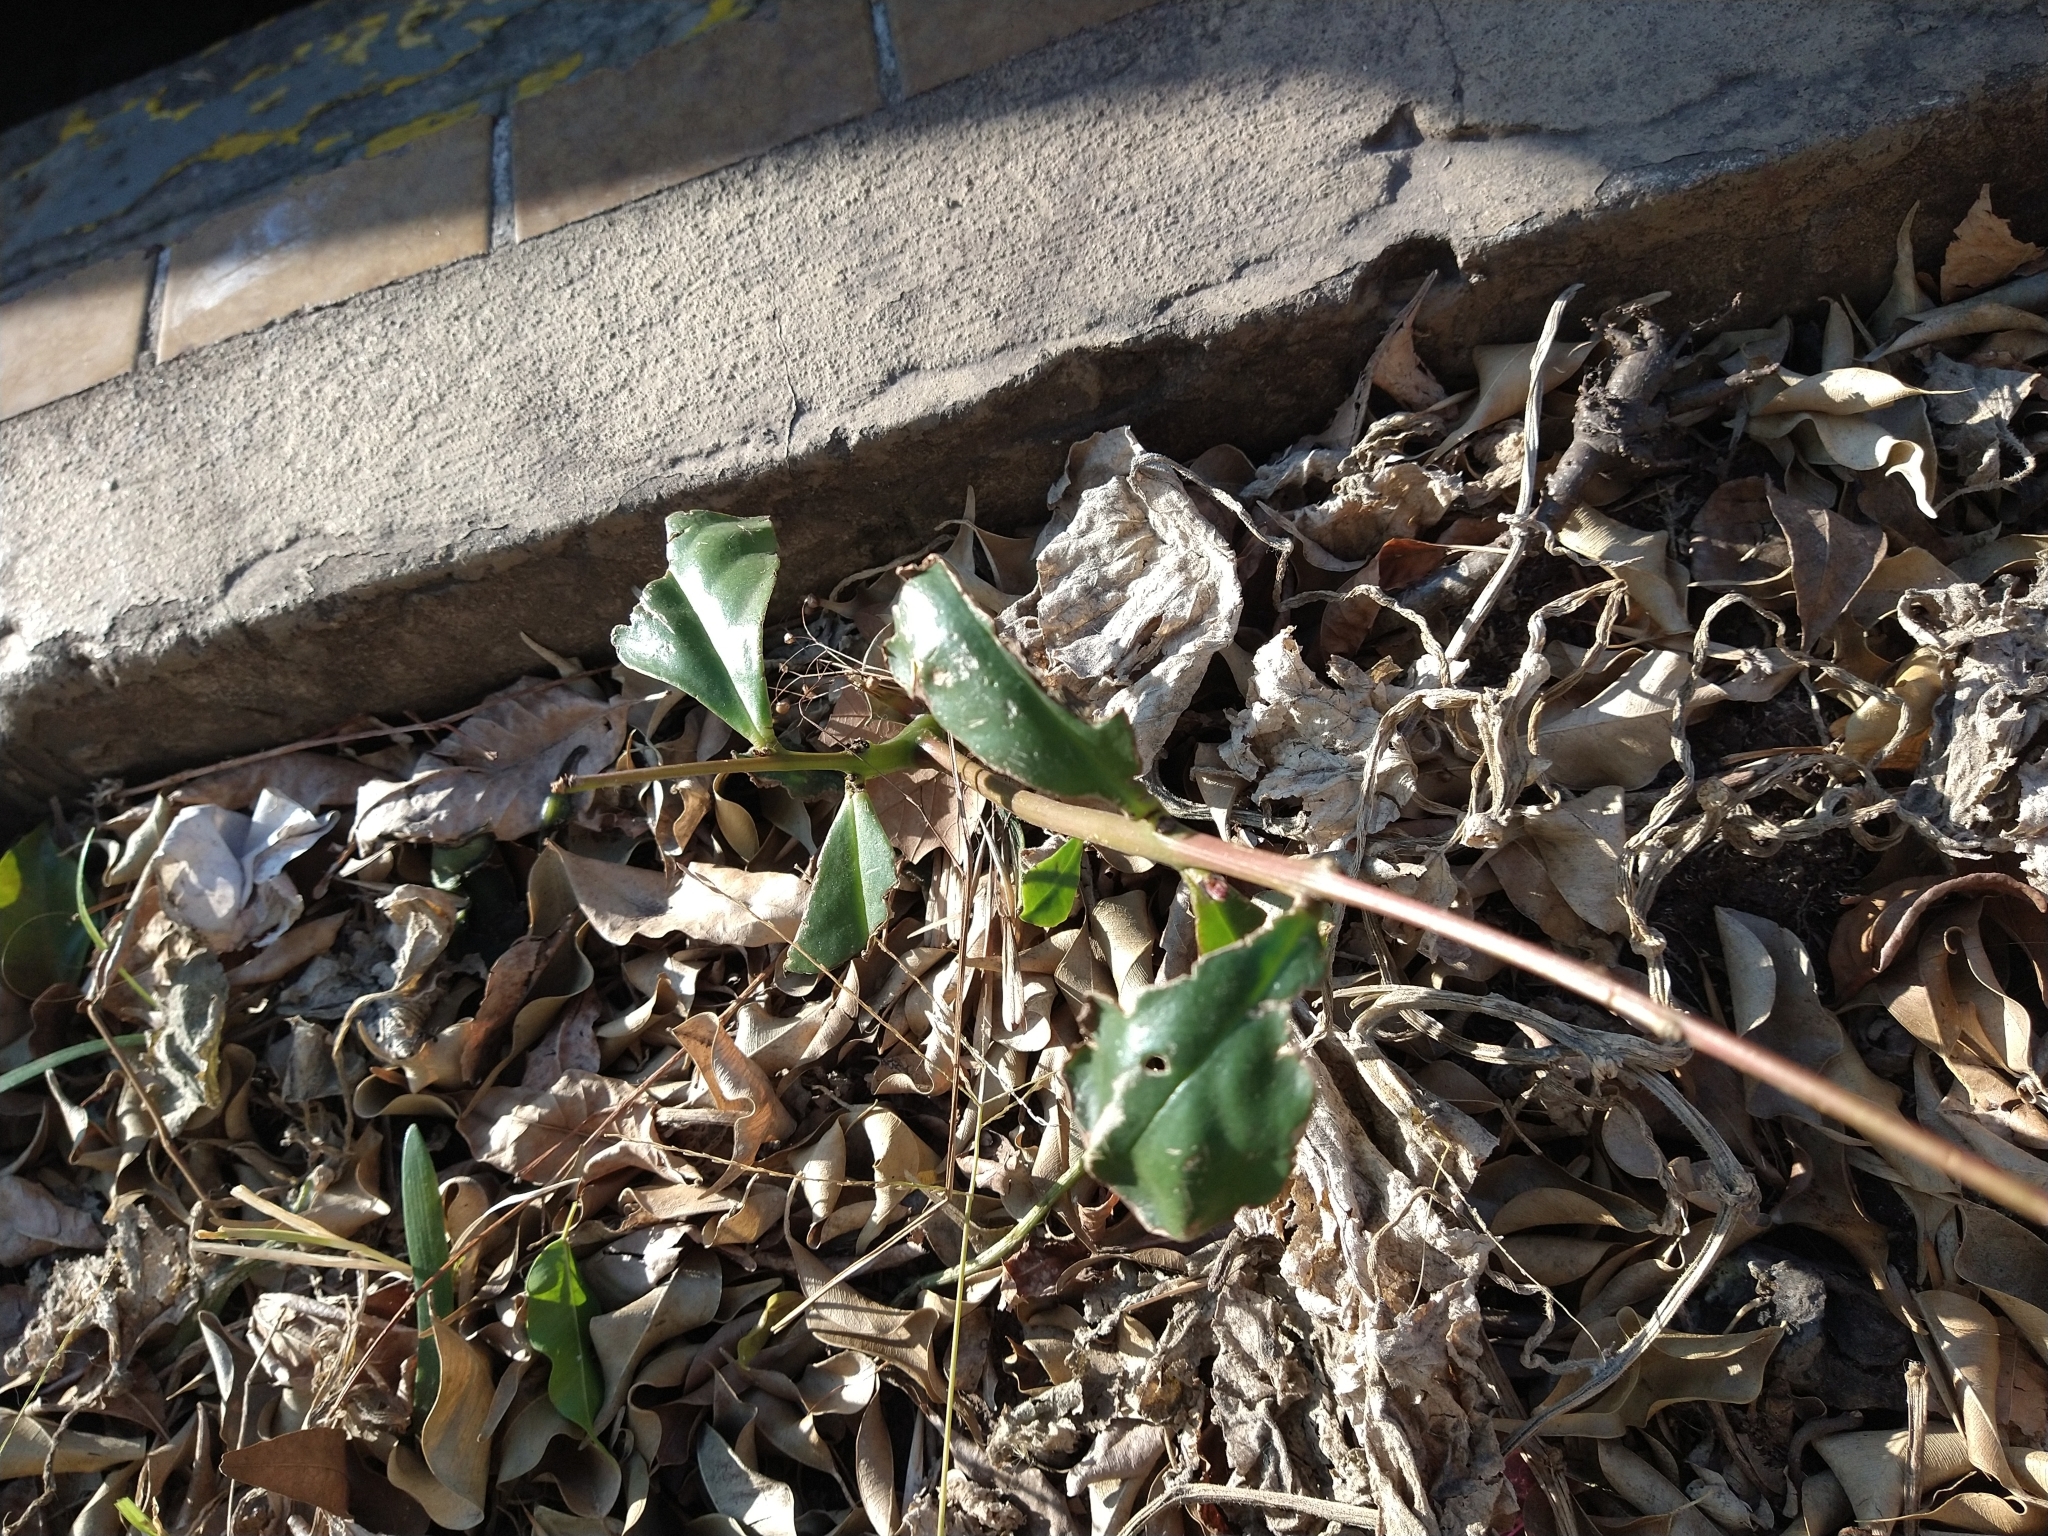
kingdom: Plantae
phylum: Tracheophyta
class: Magnoliopsida
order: Caryophyllales
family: Talinaceae
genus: Talinum
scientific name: Talinum paniculatum
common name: Jewels of opar
